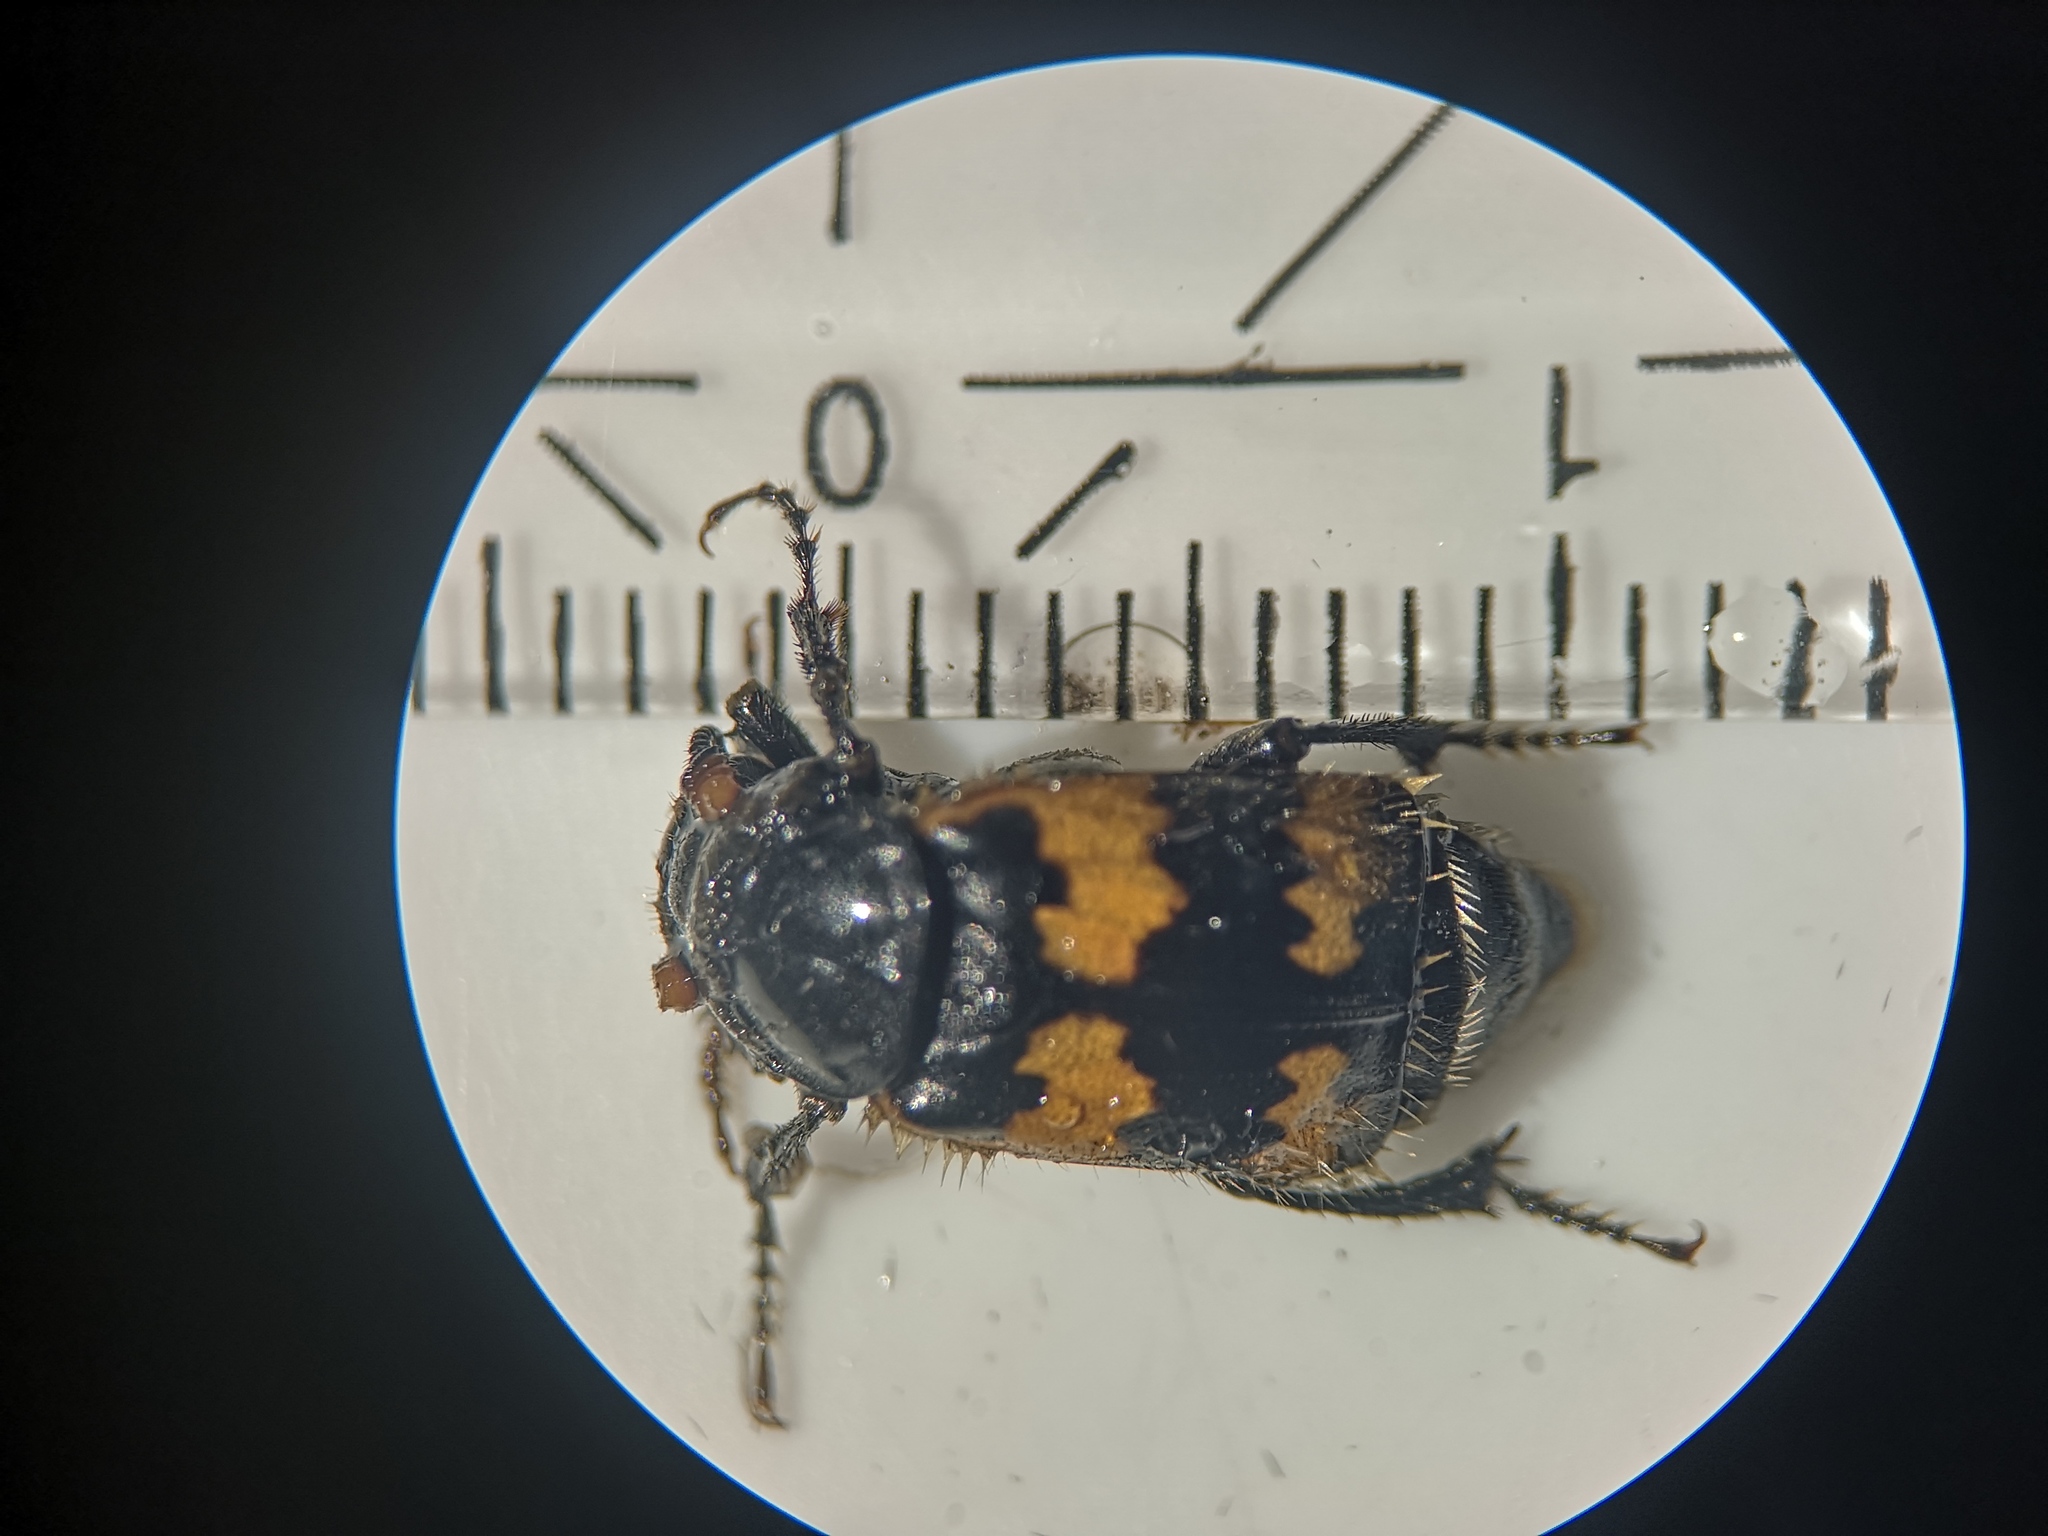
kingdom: Animalia
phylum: Arthropoda
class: Insecta
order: Coleoptera
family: Staphylinidae
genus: Nicrophorus
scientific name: Nicrophorus vespillo
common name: Common burying beetle
